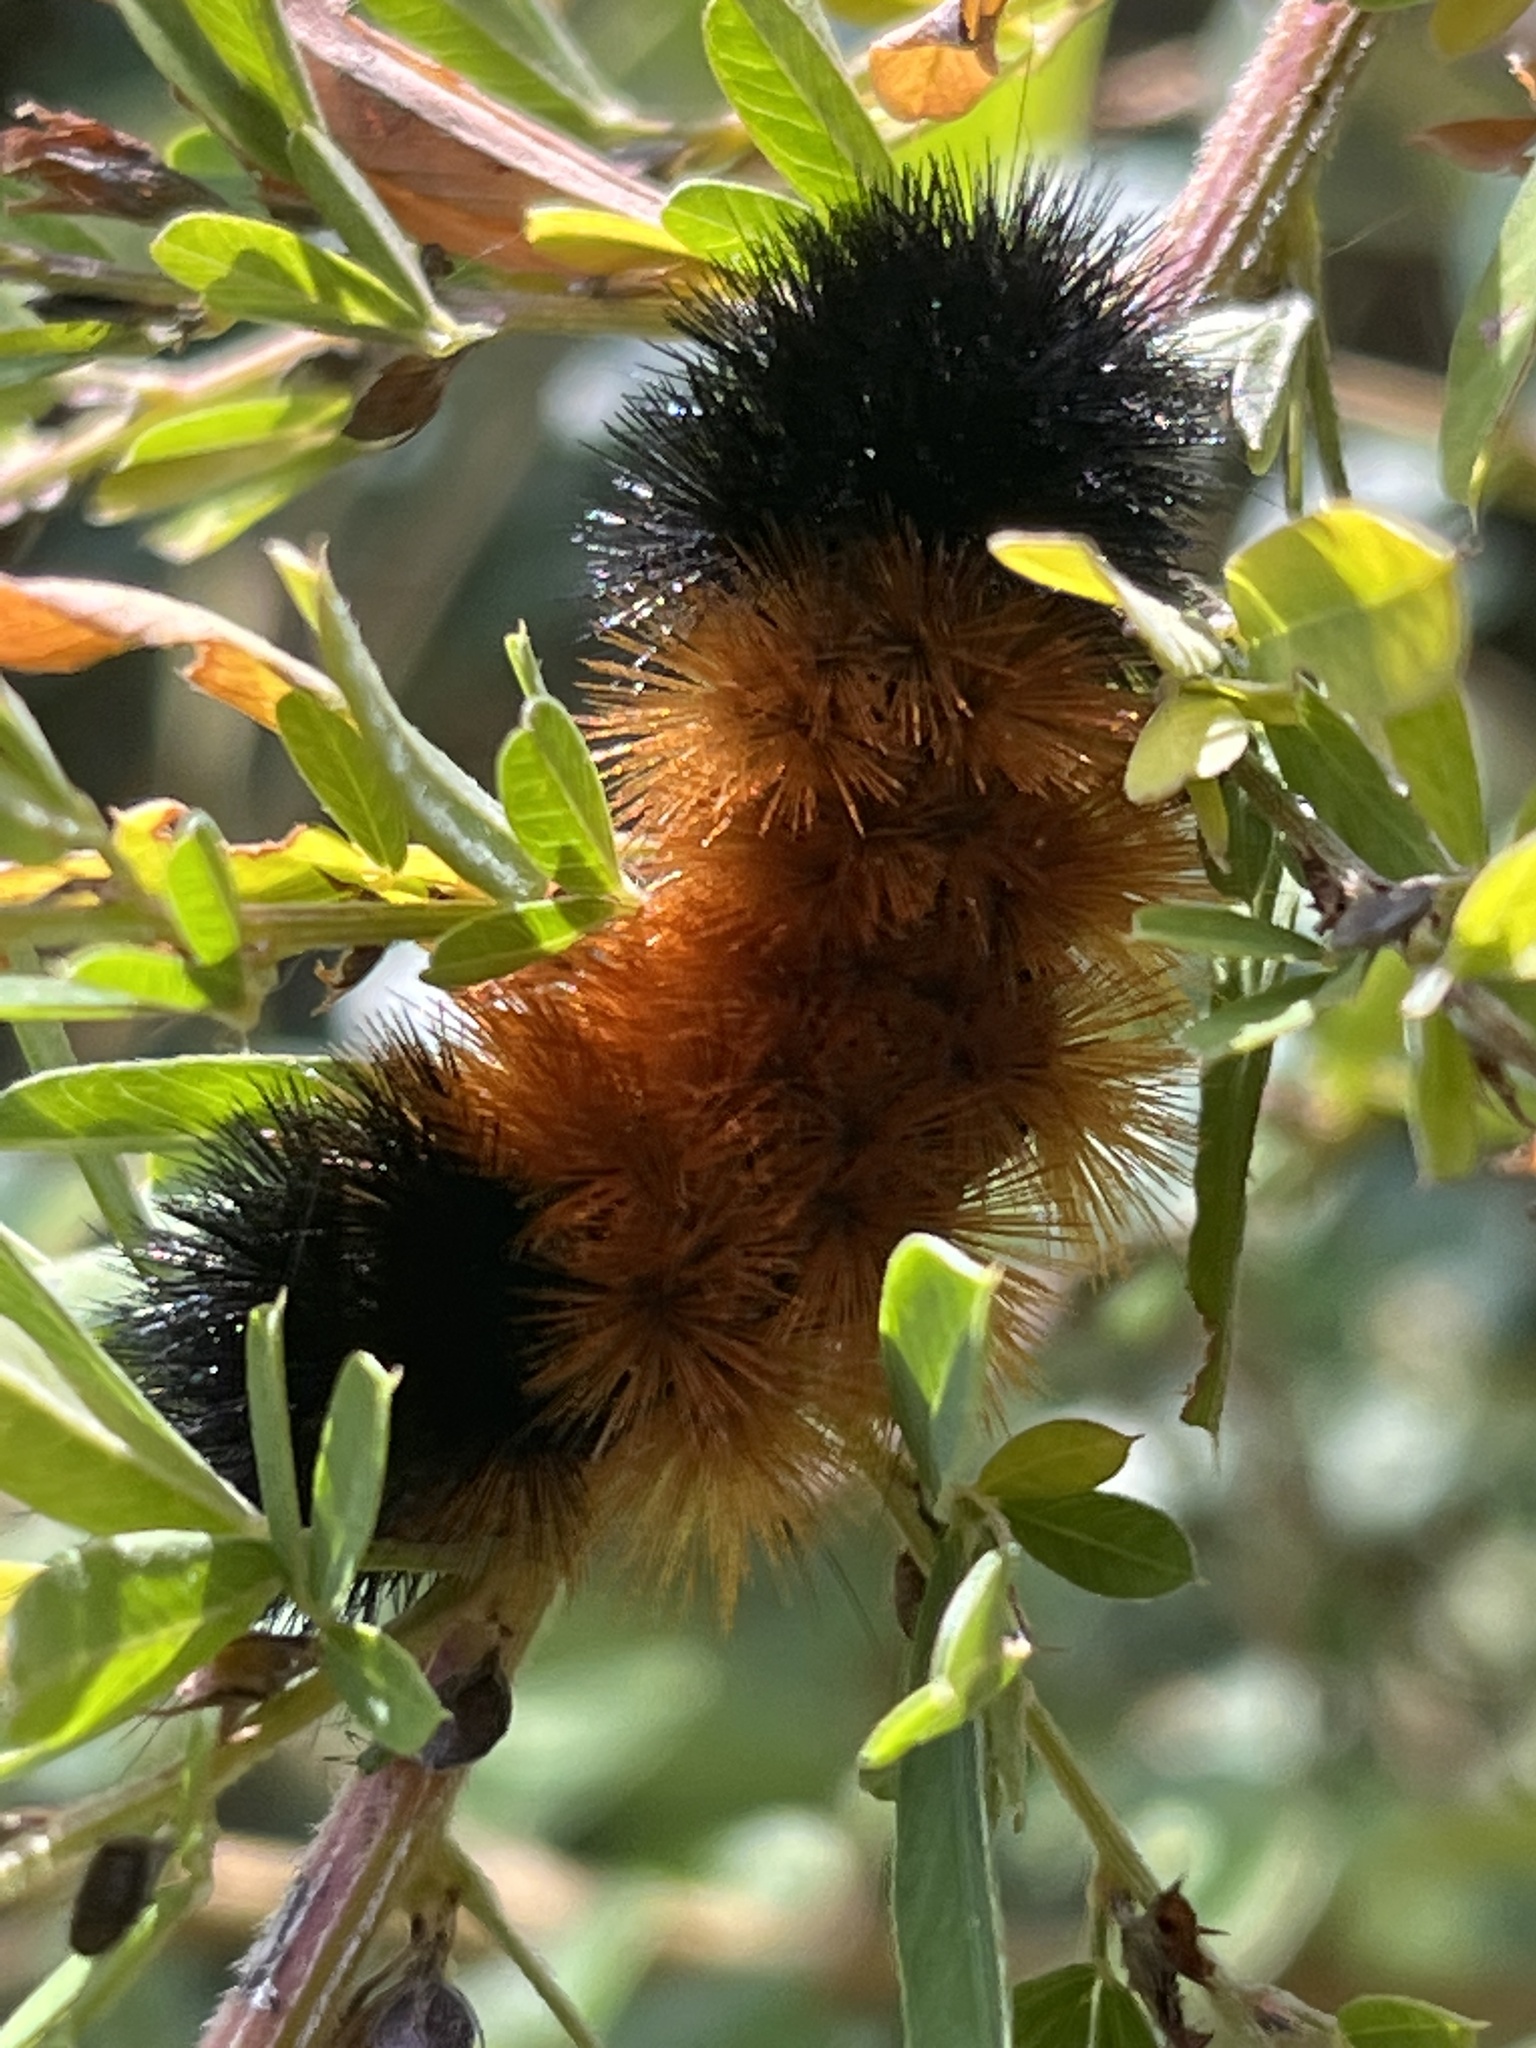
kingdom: Animalia
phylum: Arthropoda
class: Insecta
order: Lepidoptera
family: Erebidae
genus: Pyrrharctia
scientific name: Pyrrharctia isabella
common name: Isabella tiger moth
